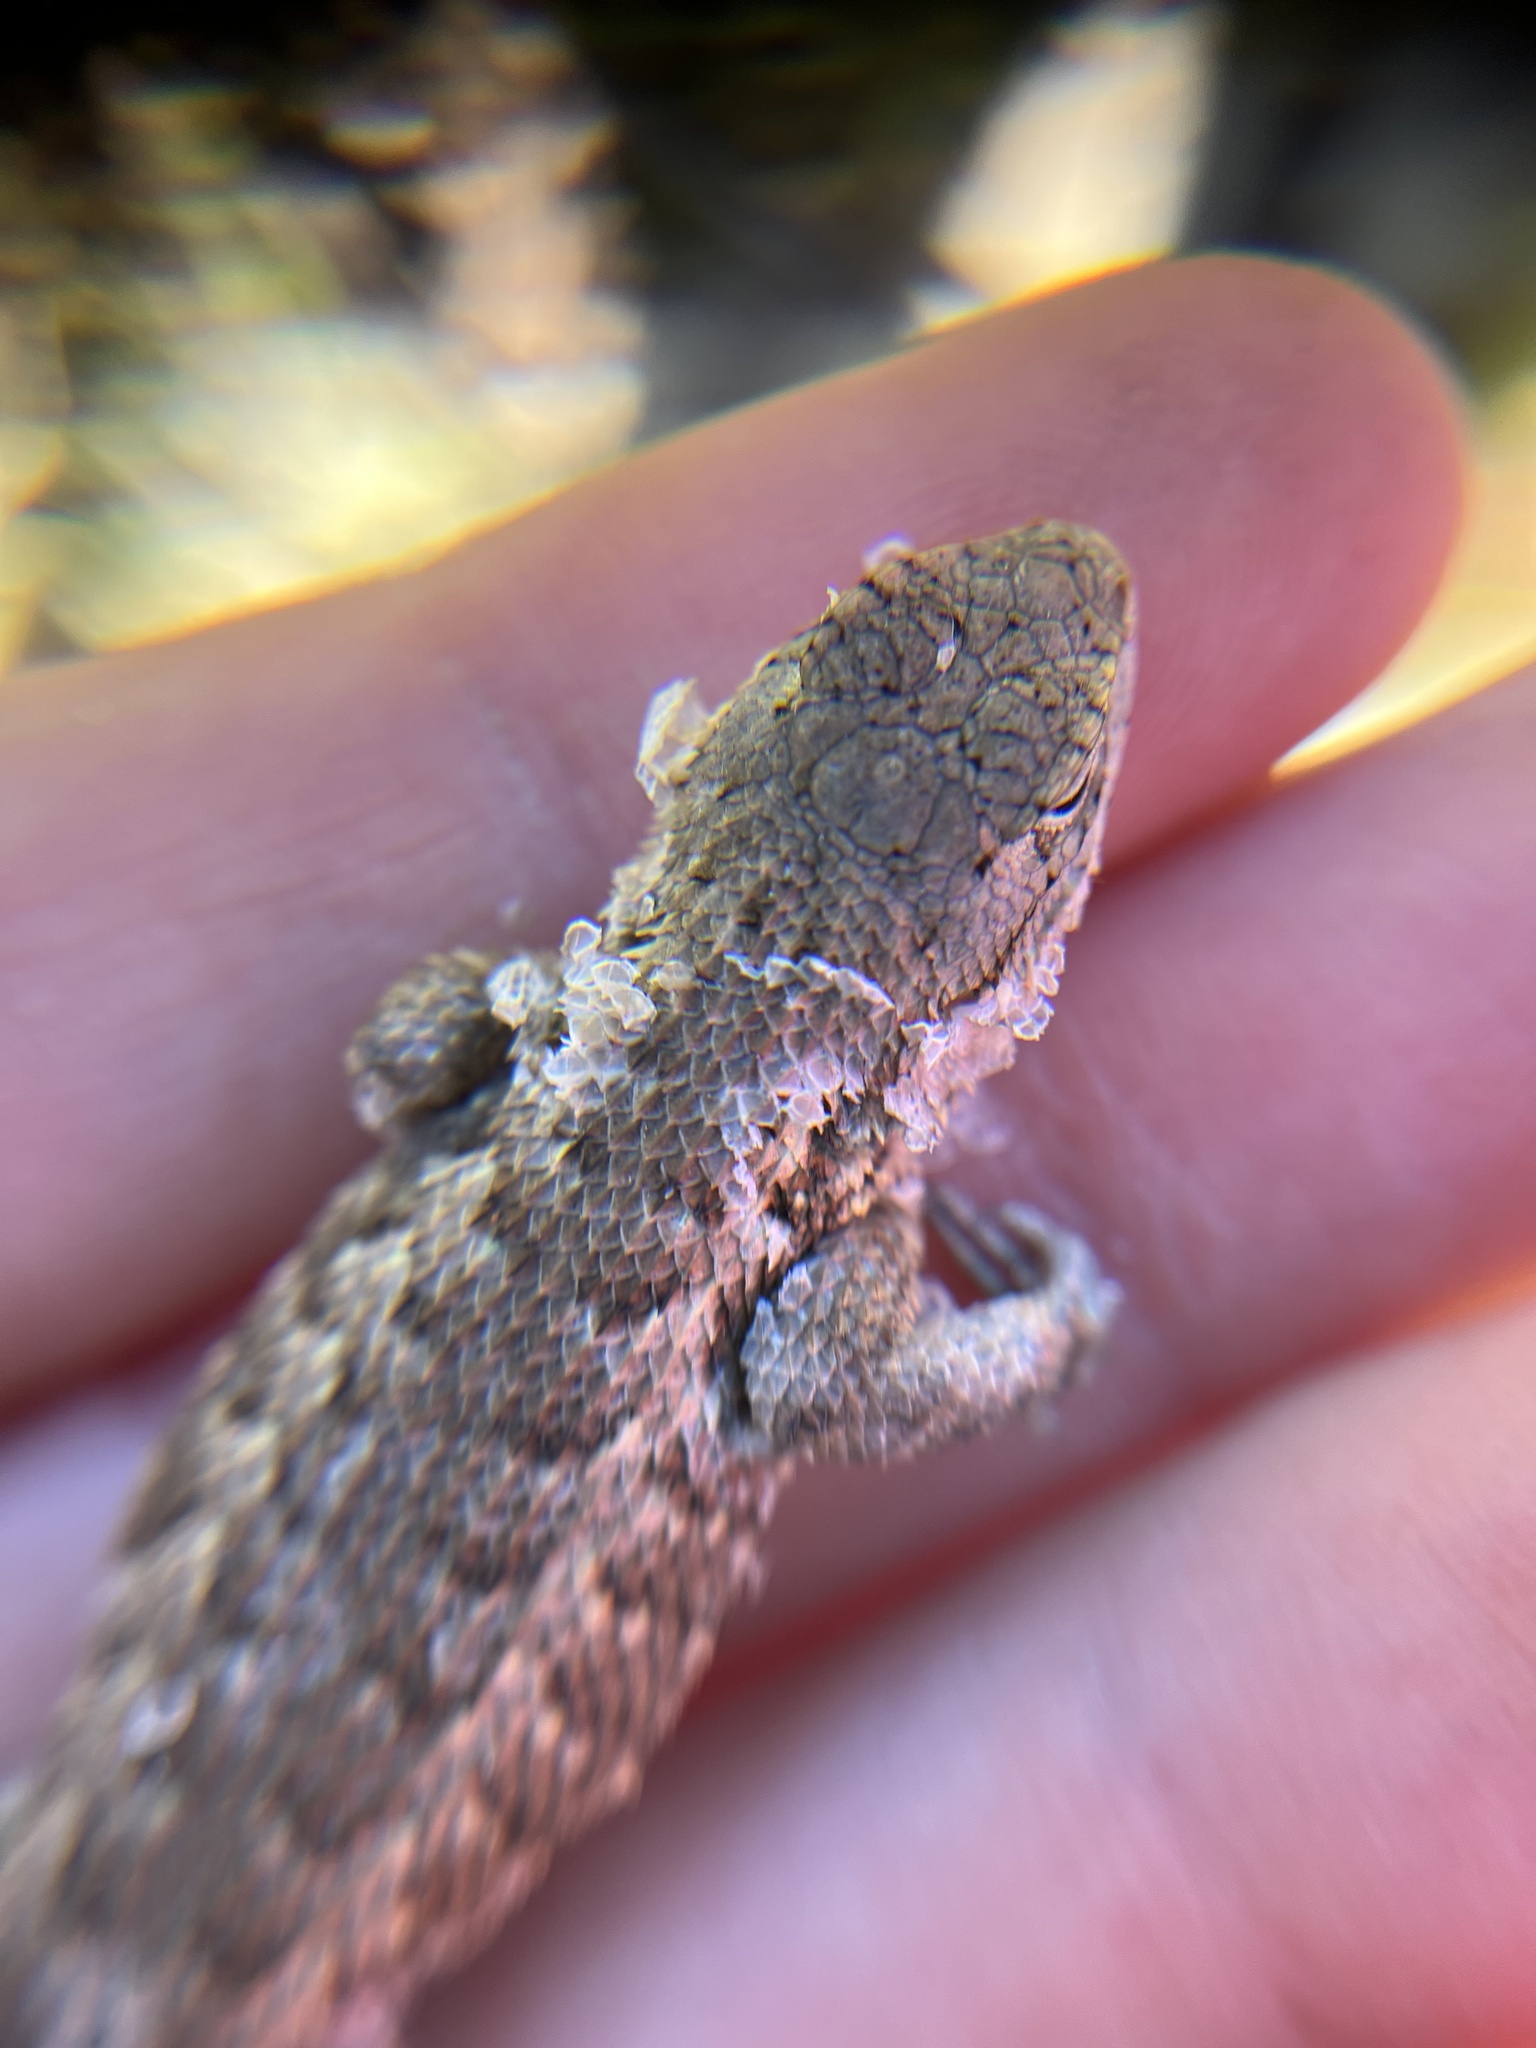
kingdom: Animalia
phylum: Chordata
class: Squamata
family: Phrynosomatidae
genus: Sceloporus
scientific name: Sceloporus occidentalis
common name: Western fence lizard
